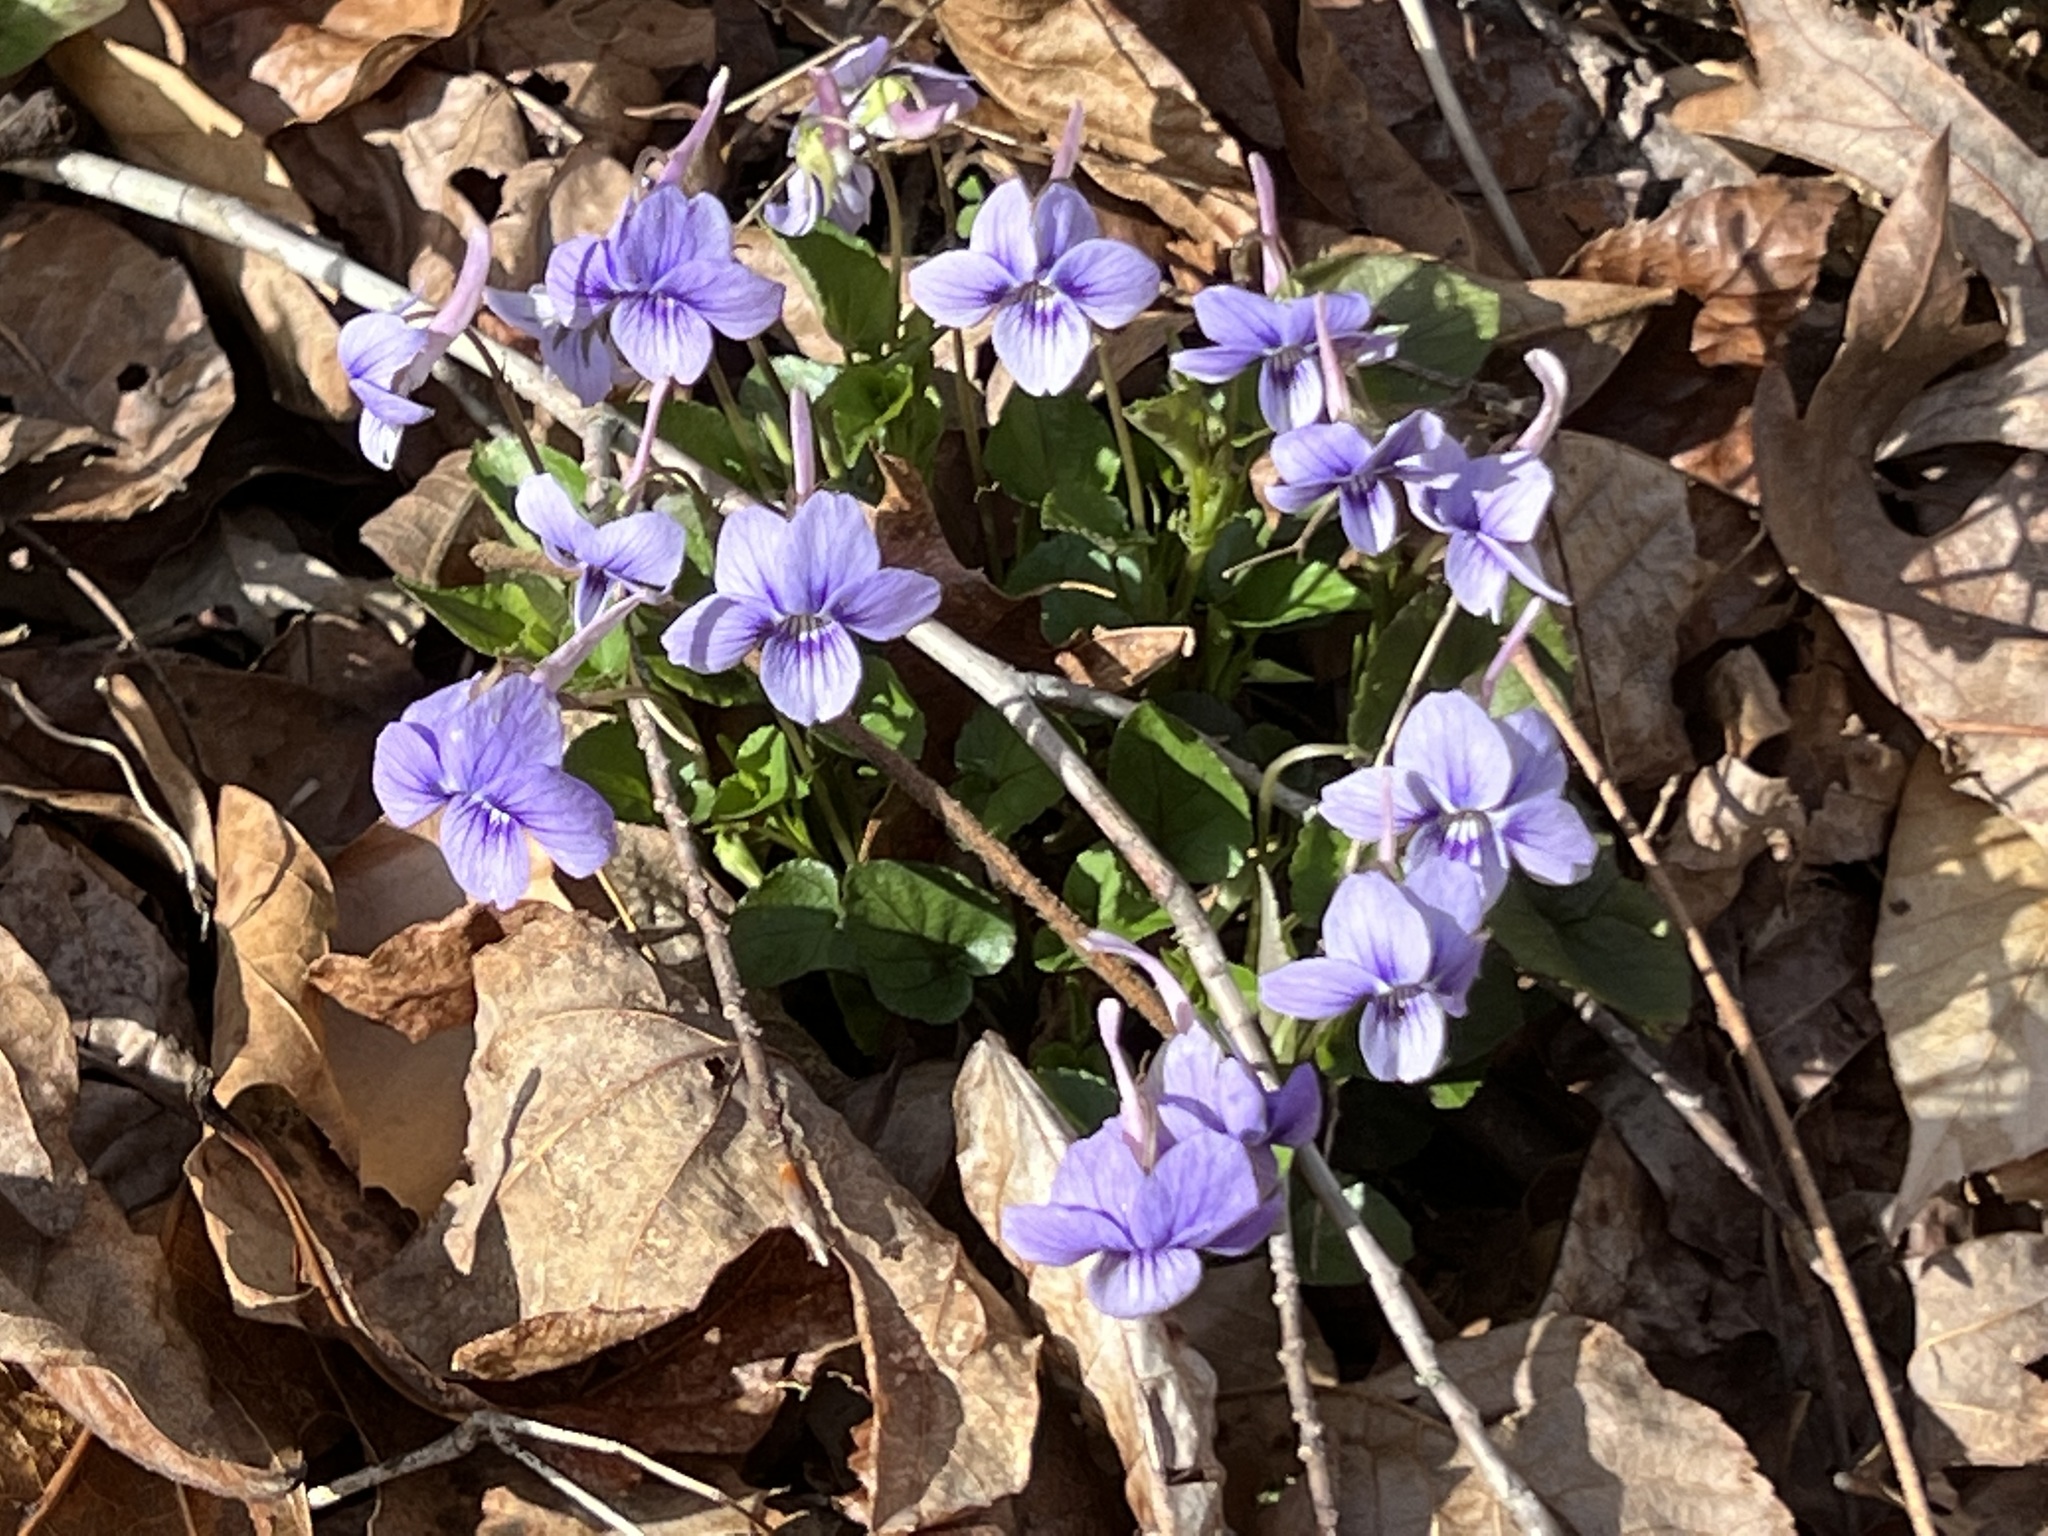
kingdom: Plantae
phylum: Tracheophyta
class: Magnoliopsida
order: Malpighiales
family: Violaceae
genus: Viola
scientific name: Viola rostrata
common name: Long-spur violet
